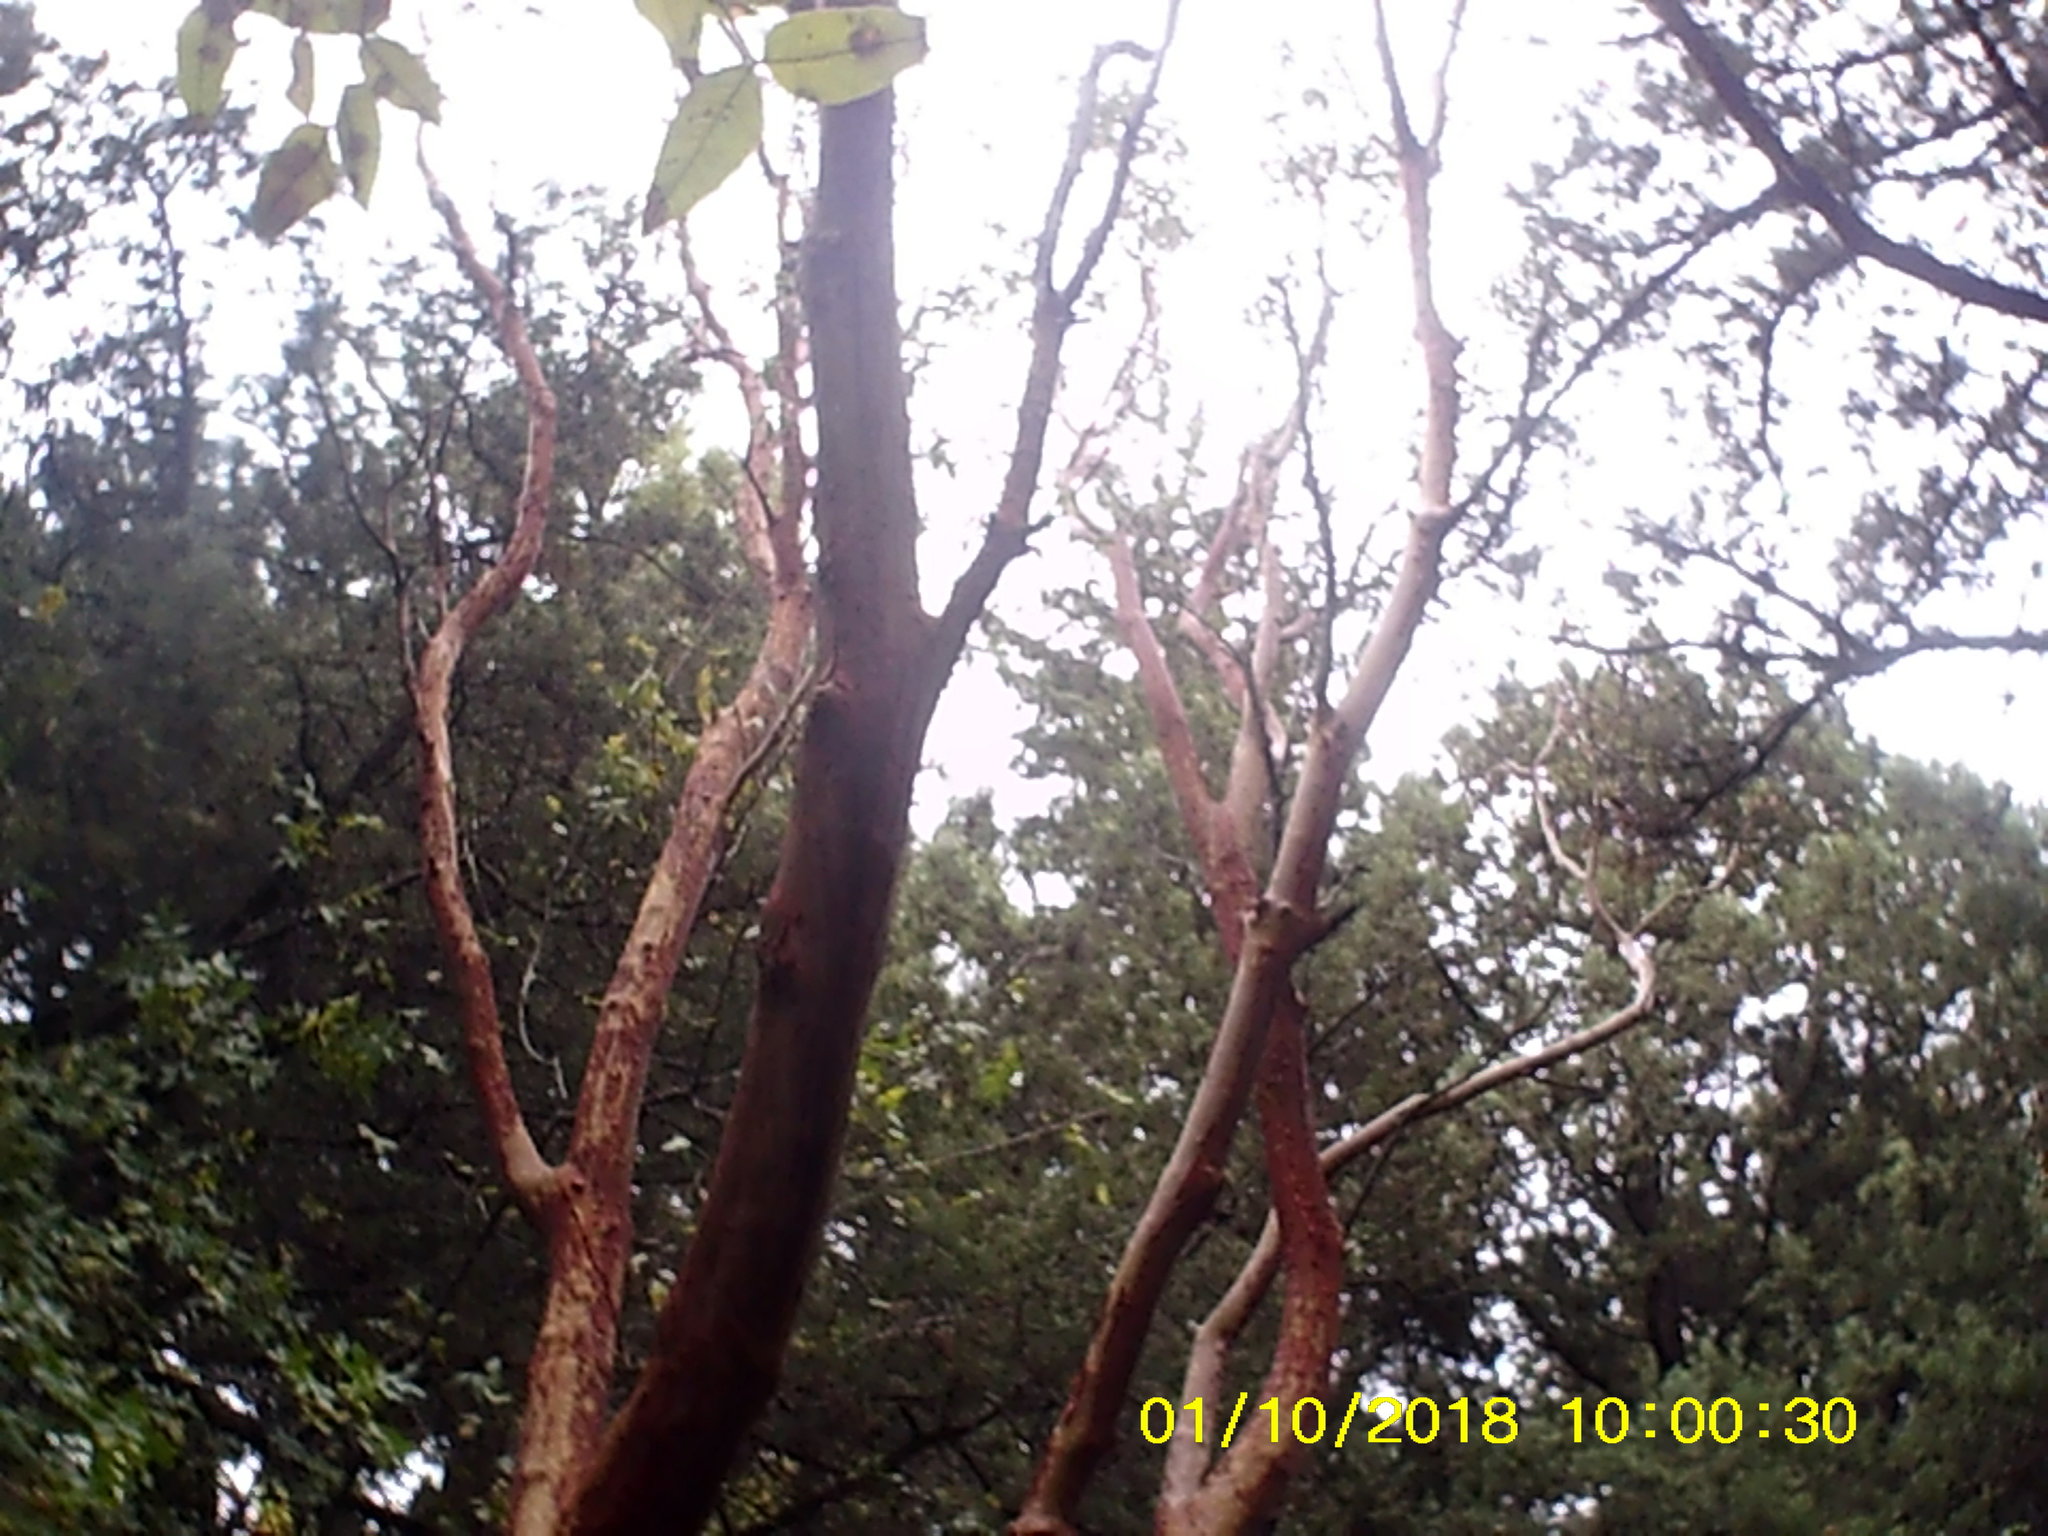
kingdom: Plantae
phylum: Tracheophyta
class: Magnoliopsida
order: Ericales
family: Ericaceae
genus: Arbutus
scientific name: Arbutus andrachne
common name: Greek strawberry tree
